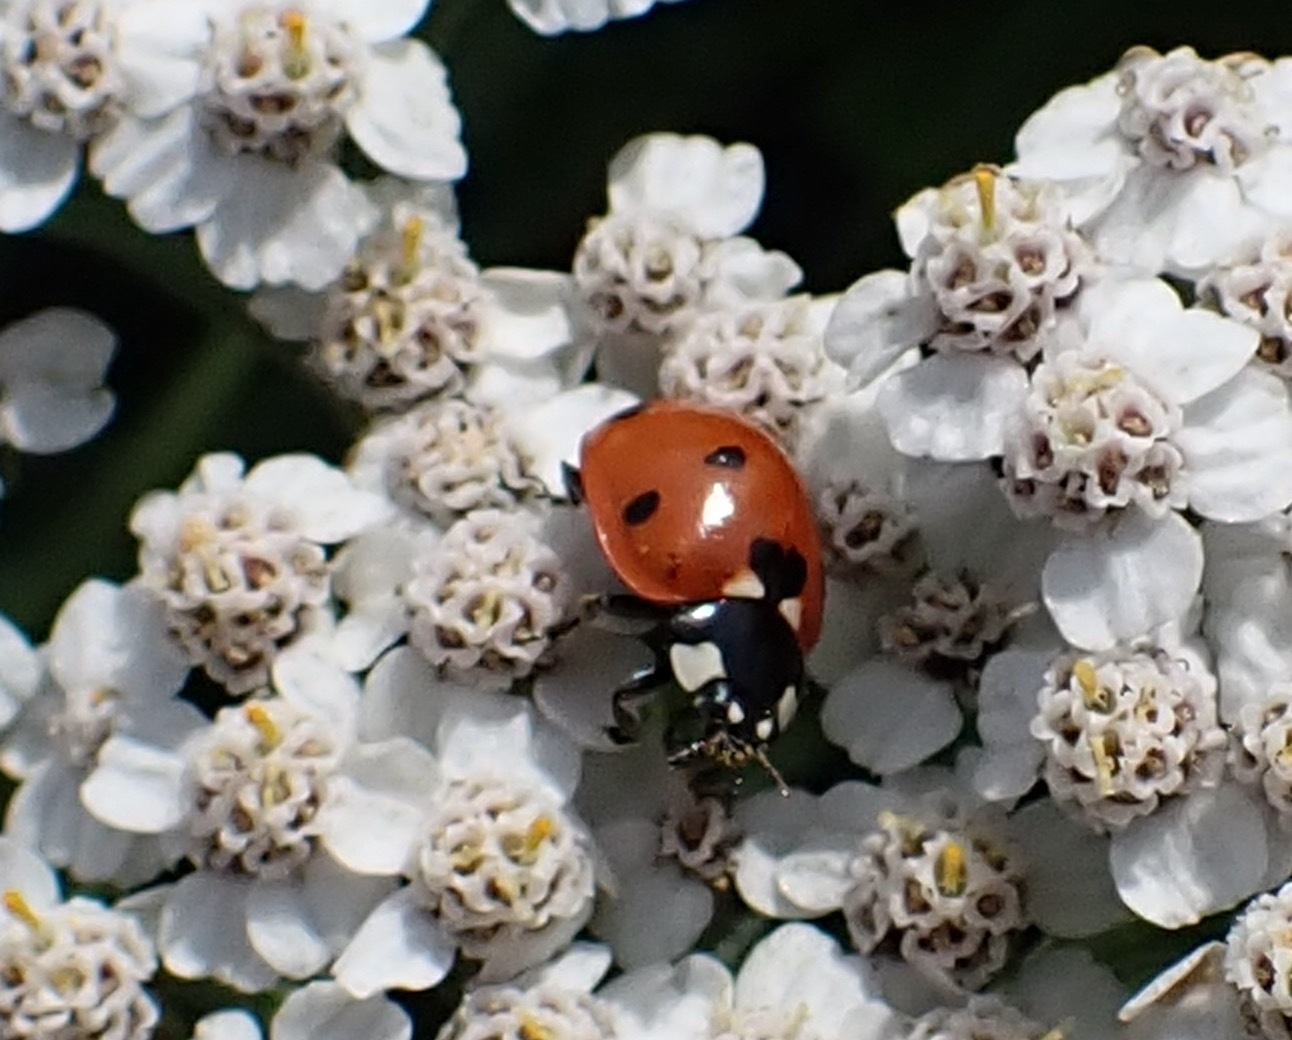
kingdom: Animalia
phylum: Arthropoda
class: Insecta
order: Coleoptera
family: Coccinellidae
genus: Coccinella
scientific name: Coccinella septempunctata
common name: Sevenspotted lady beetle
